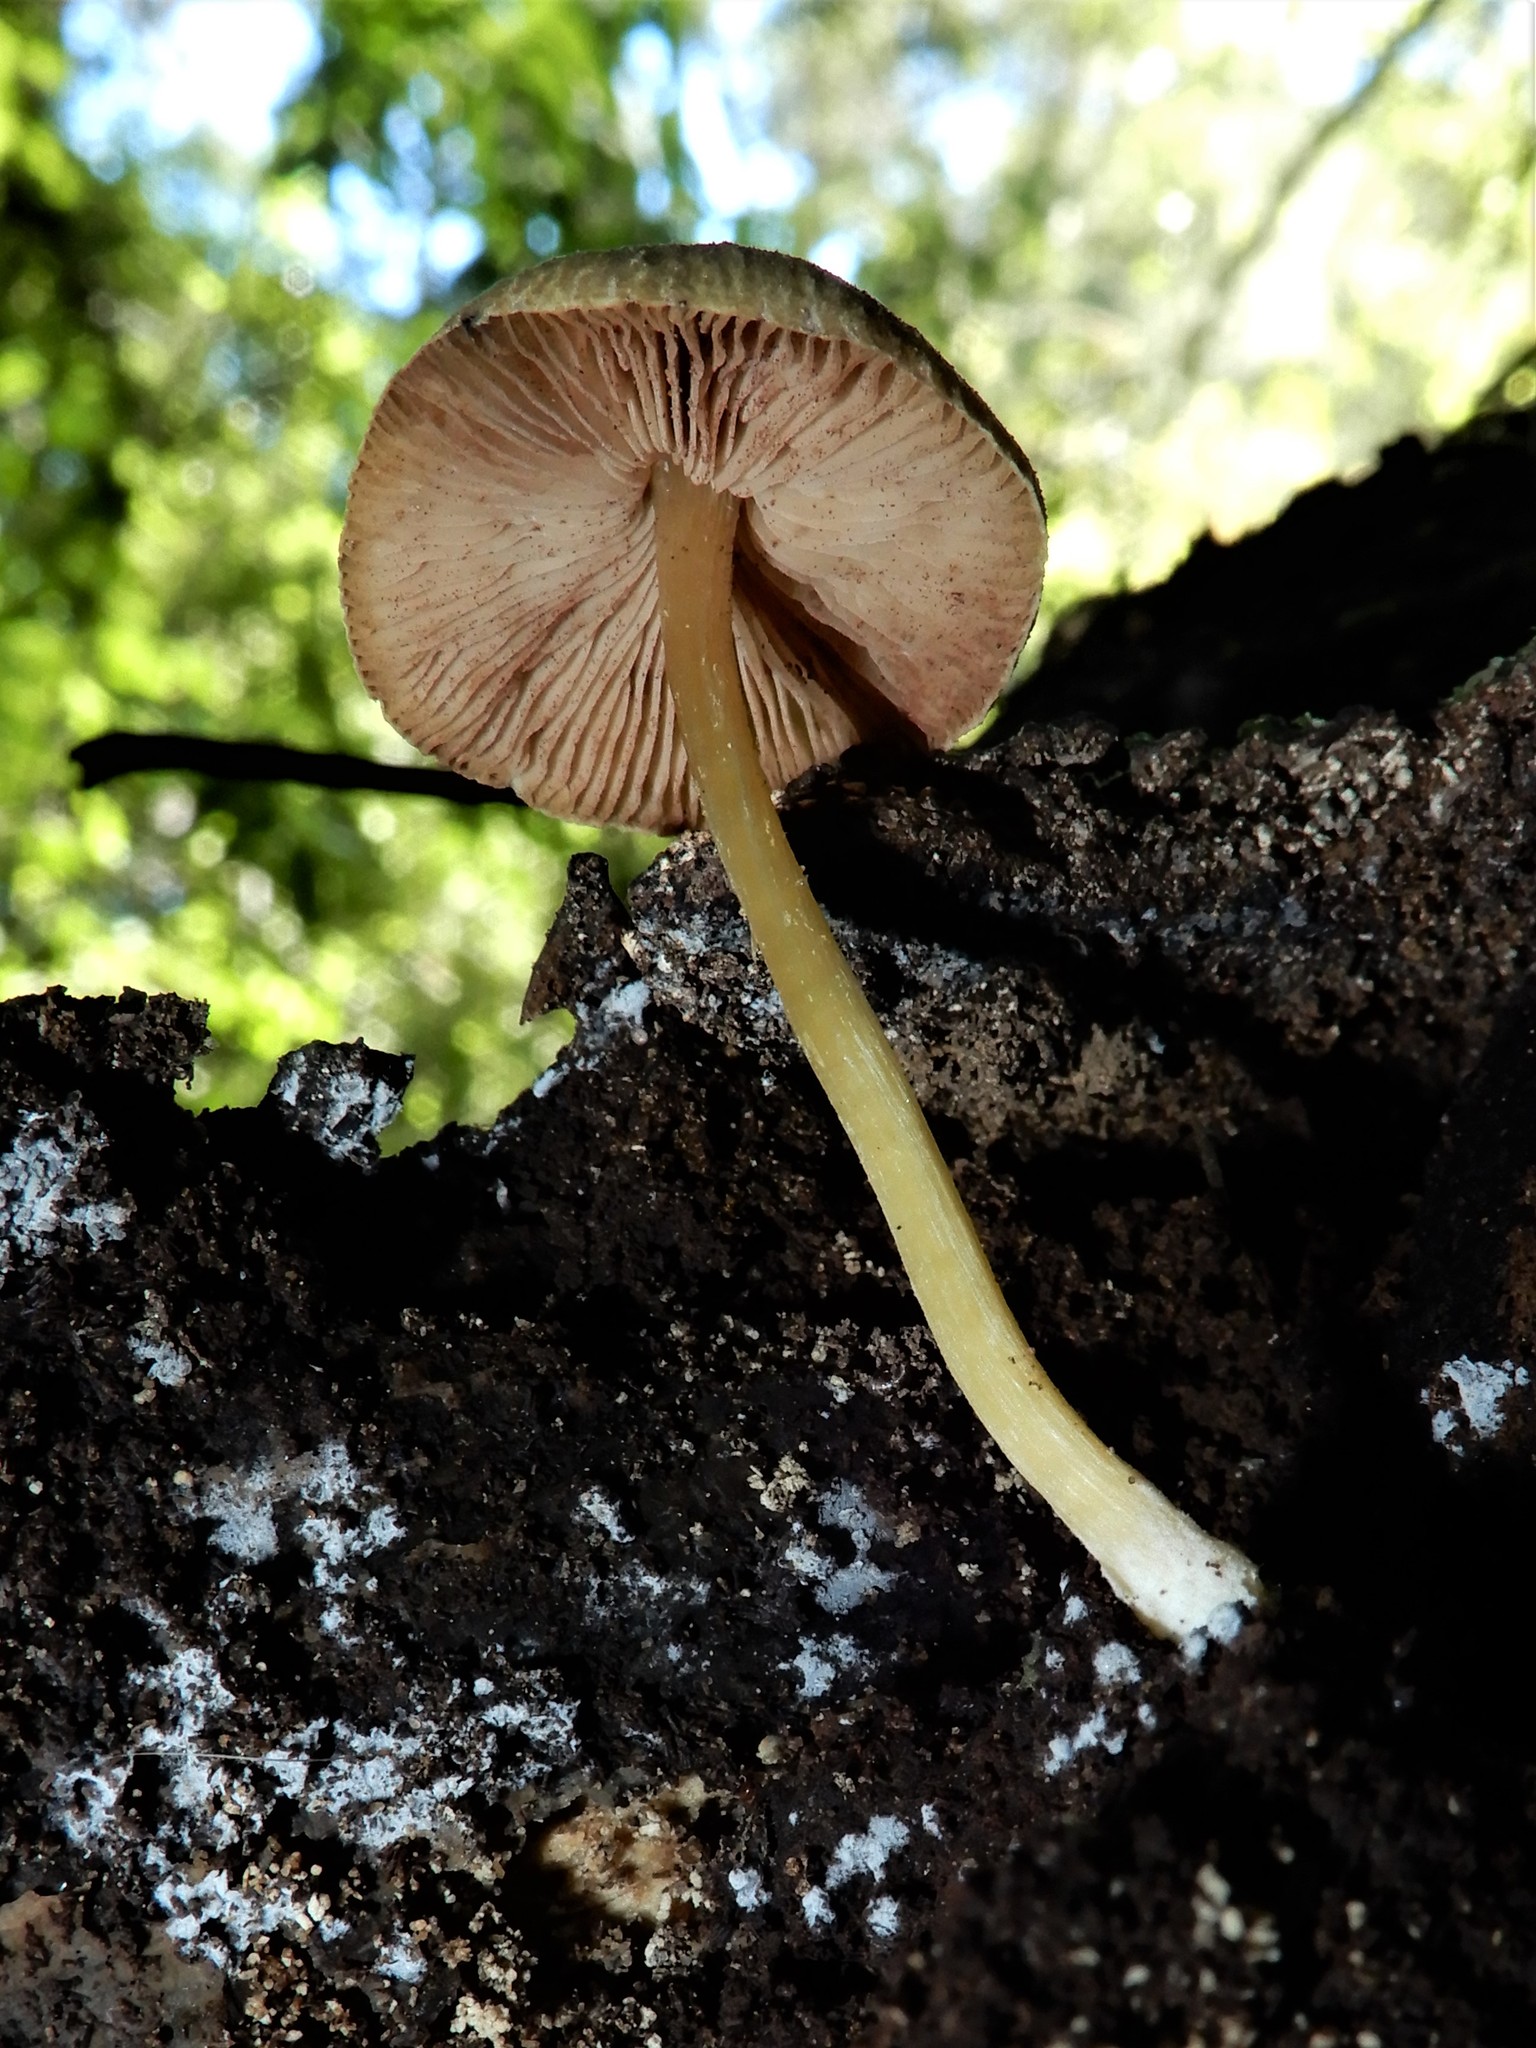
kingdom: Fungi
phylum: Basidiomycota
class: Agaricomycetes
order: Agaricales
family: Pluteaceae
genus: Pluteus
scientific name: Pluteus pauperculus
